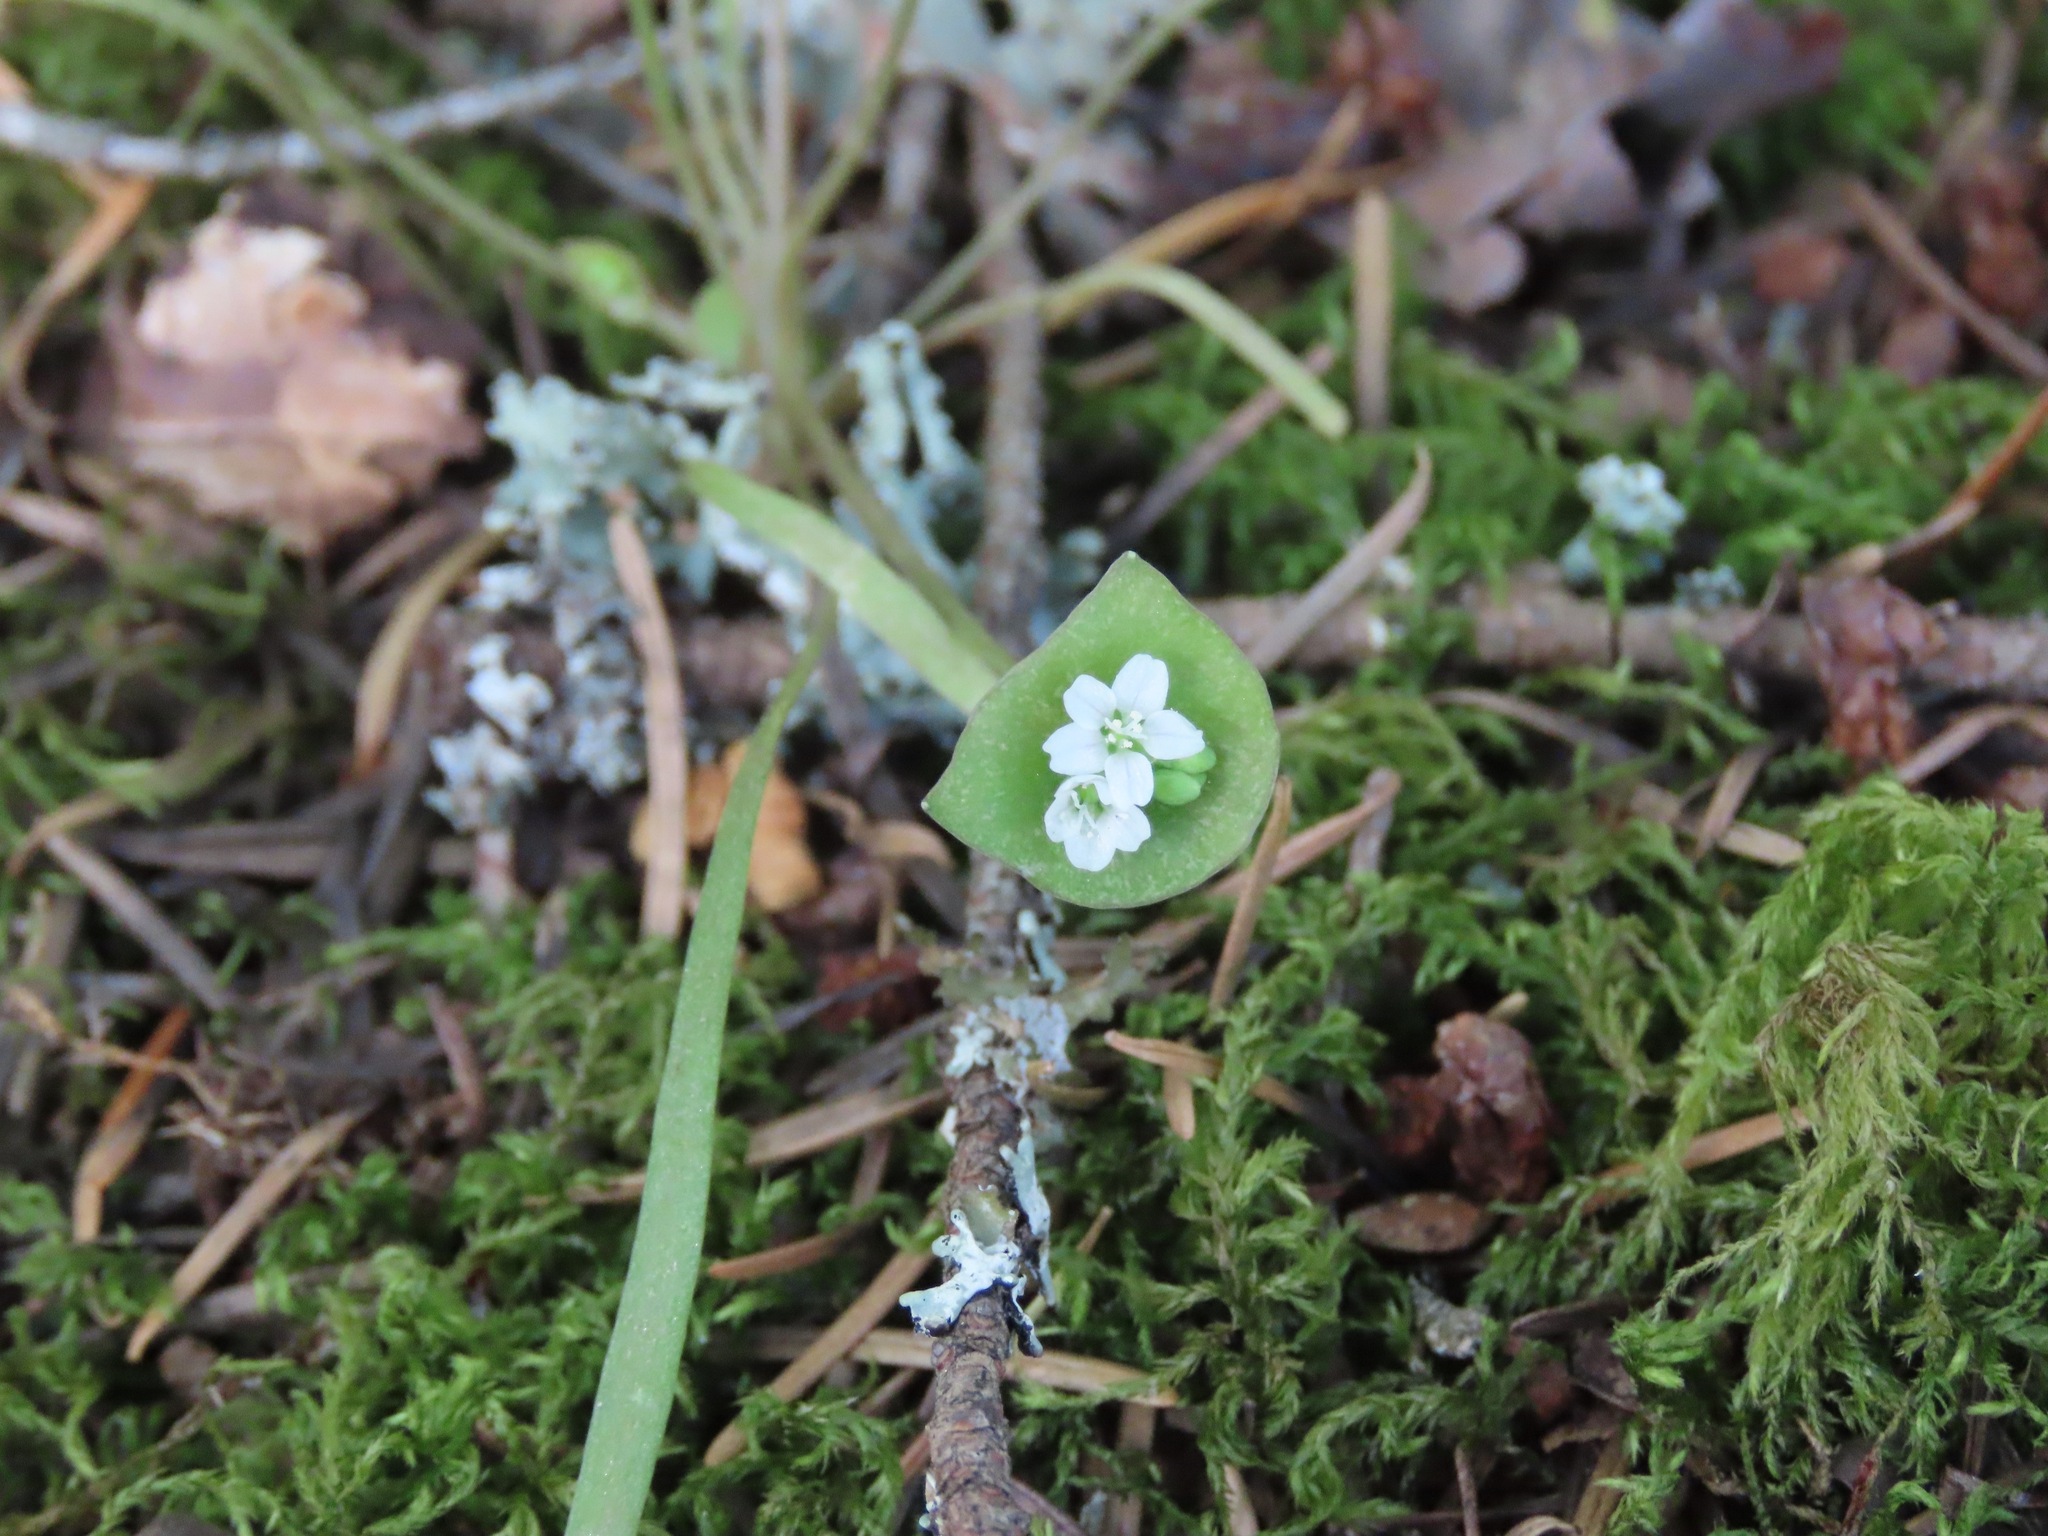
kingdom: Plantae
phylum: Tracheophyta
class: Magnoliopsida
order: Caryophyllales
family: Montiaceae
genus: Claytonia
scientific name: Claytonia parviflora
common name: Indian-lettuce
